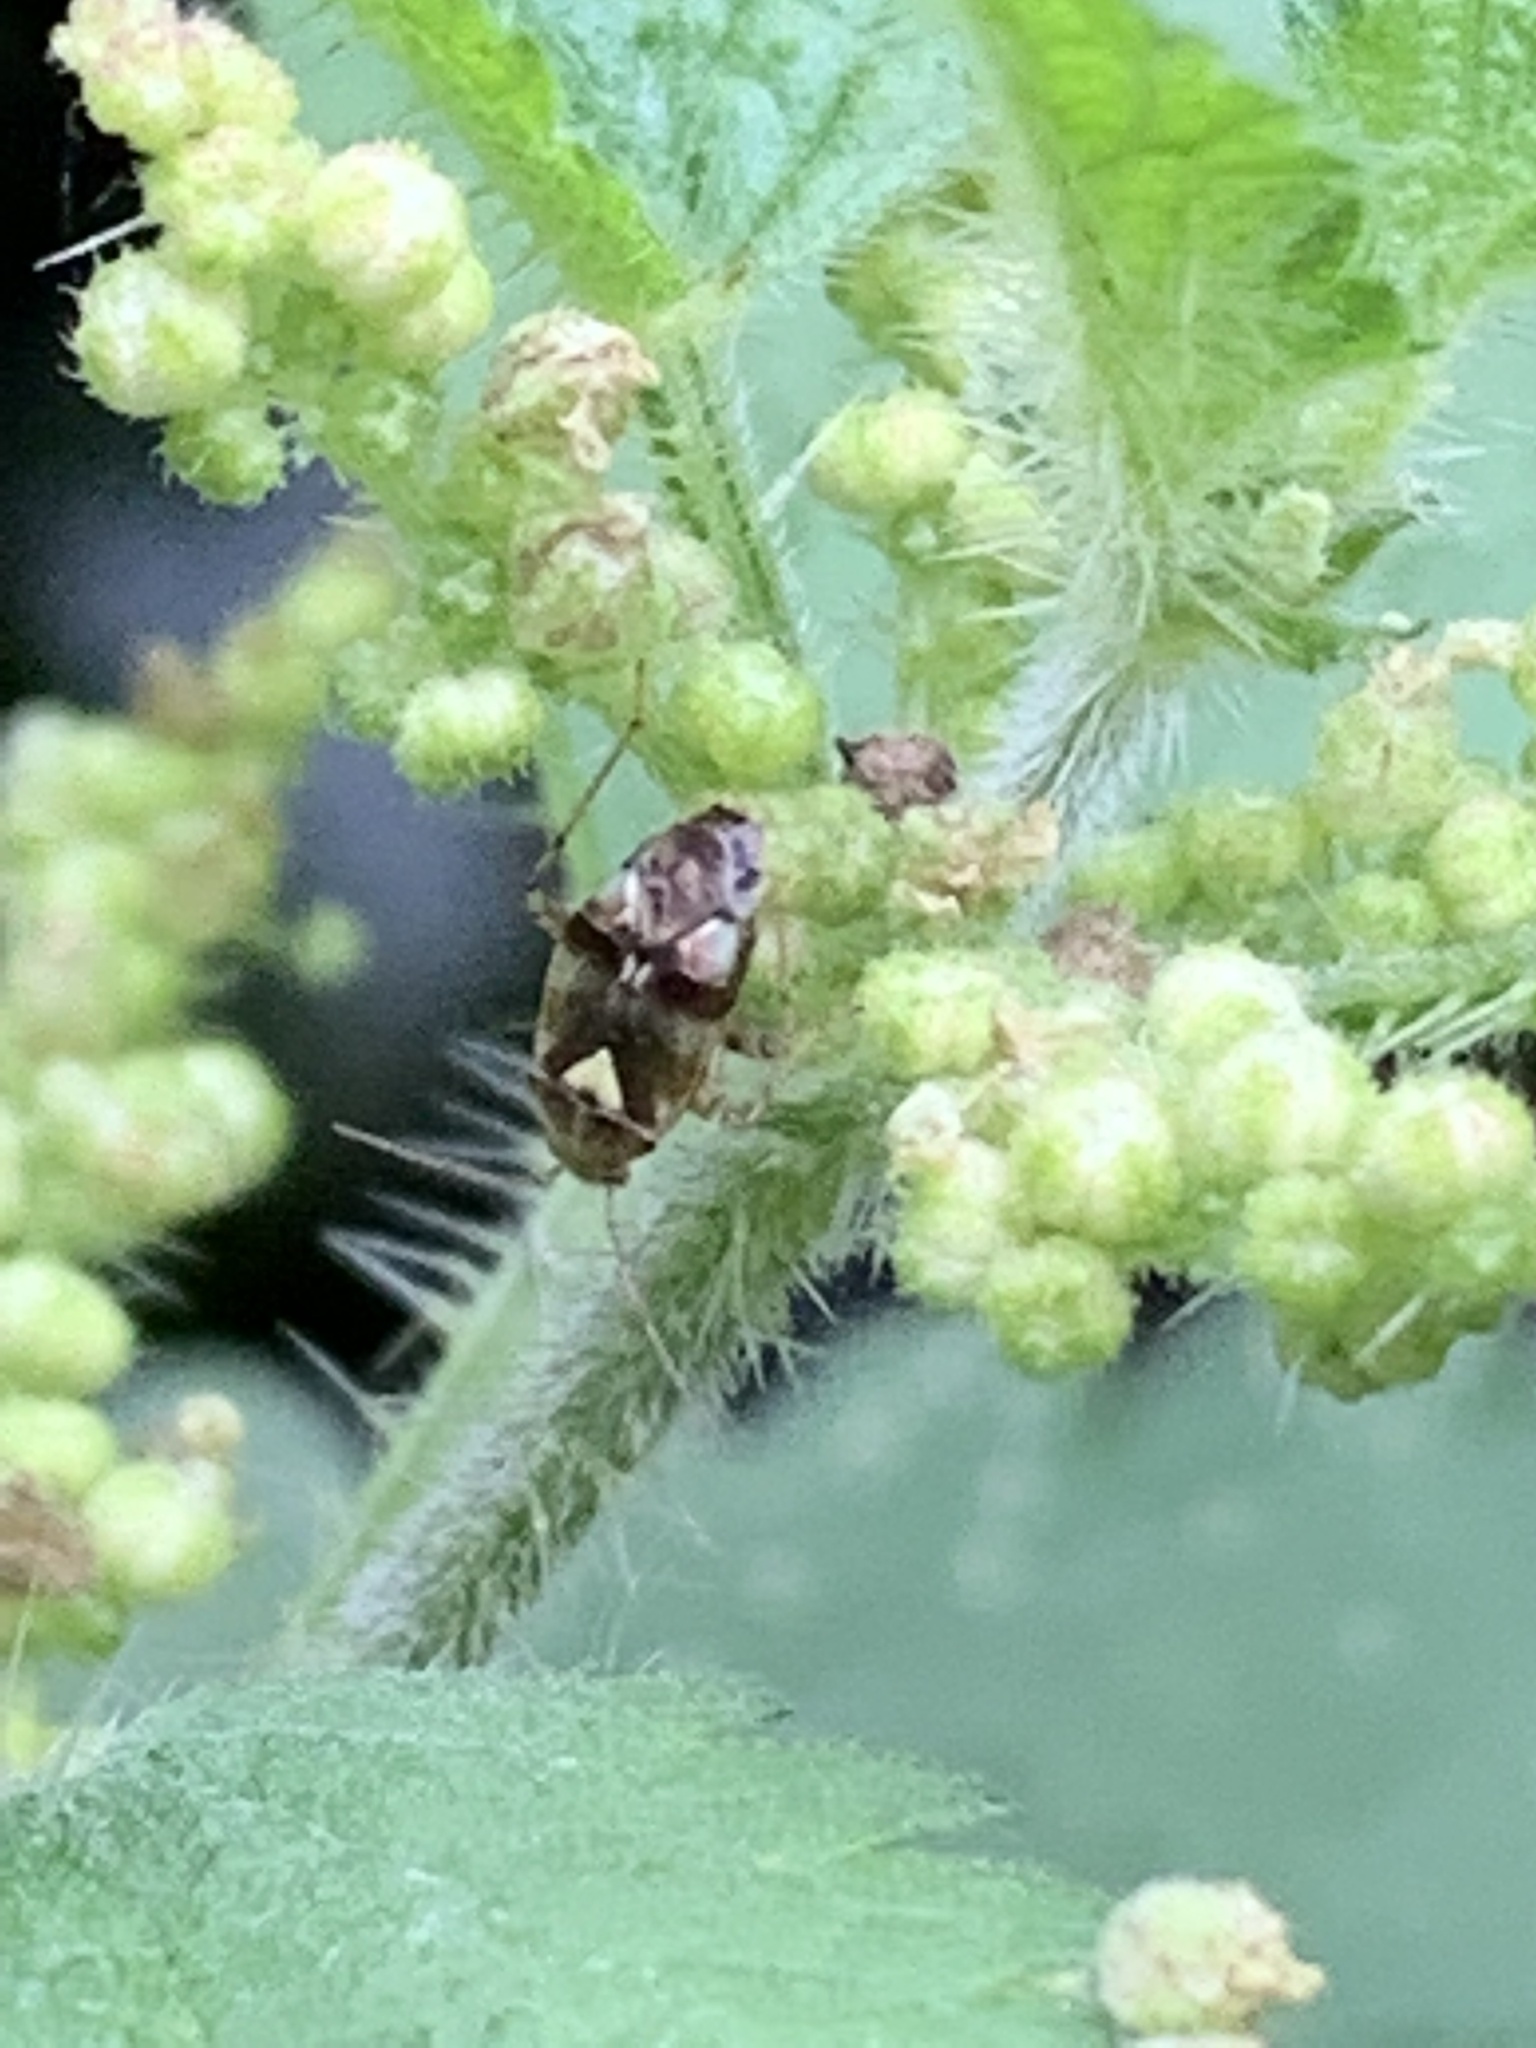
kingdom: Animalia
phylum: Arthropoda
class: Insecta
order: Hemiptera
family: Miridae
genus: Liocoris
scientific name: Liocoris tripustulatus
